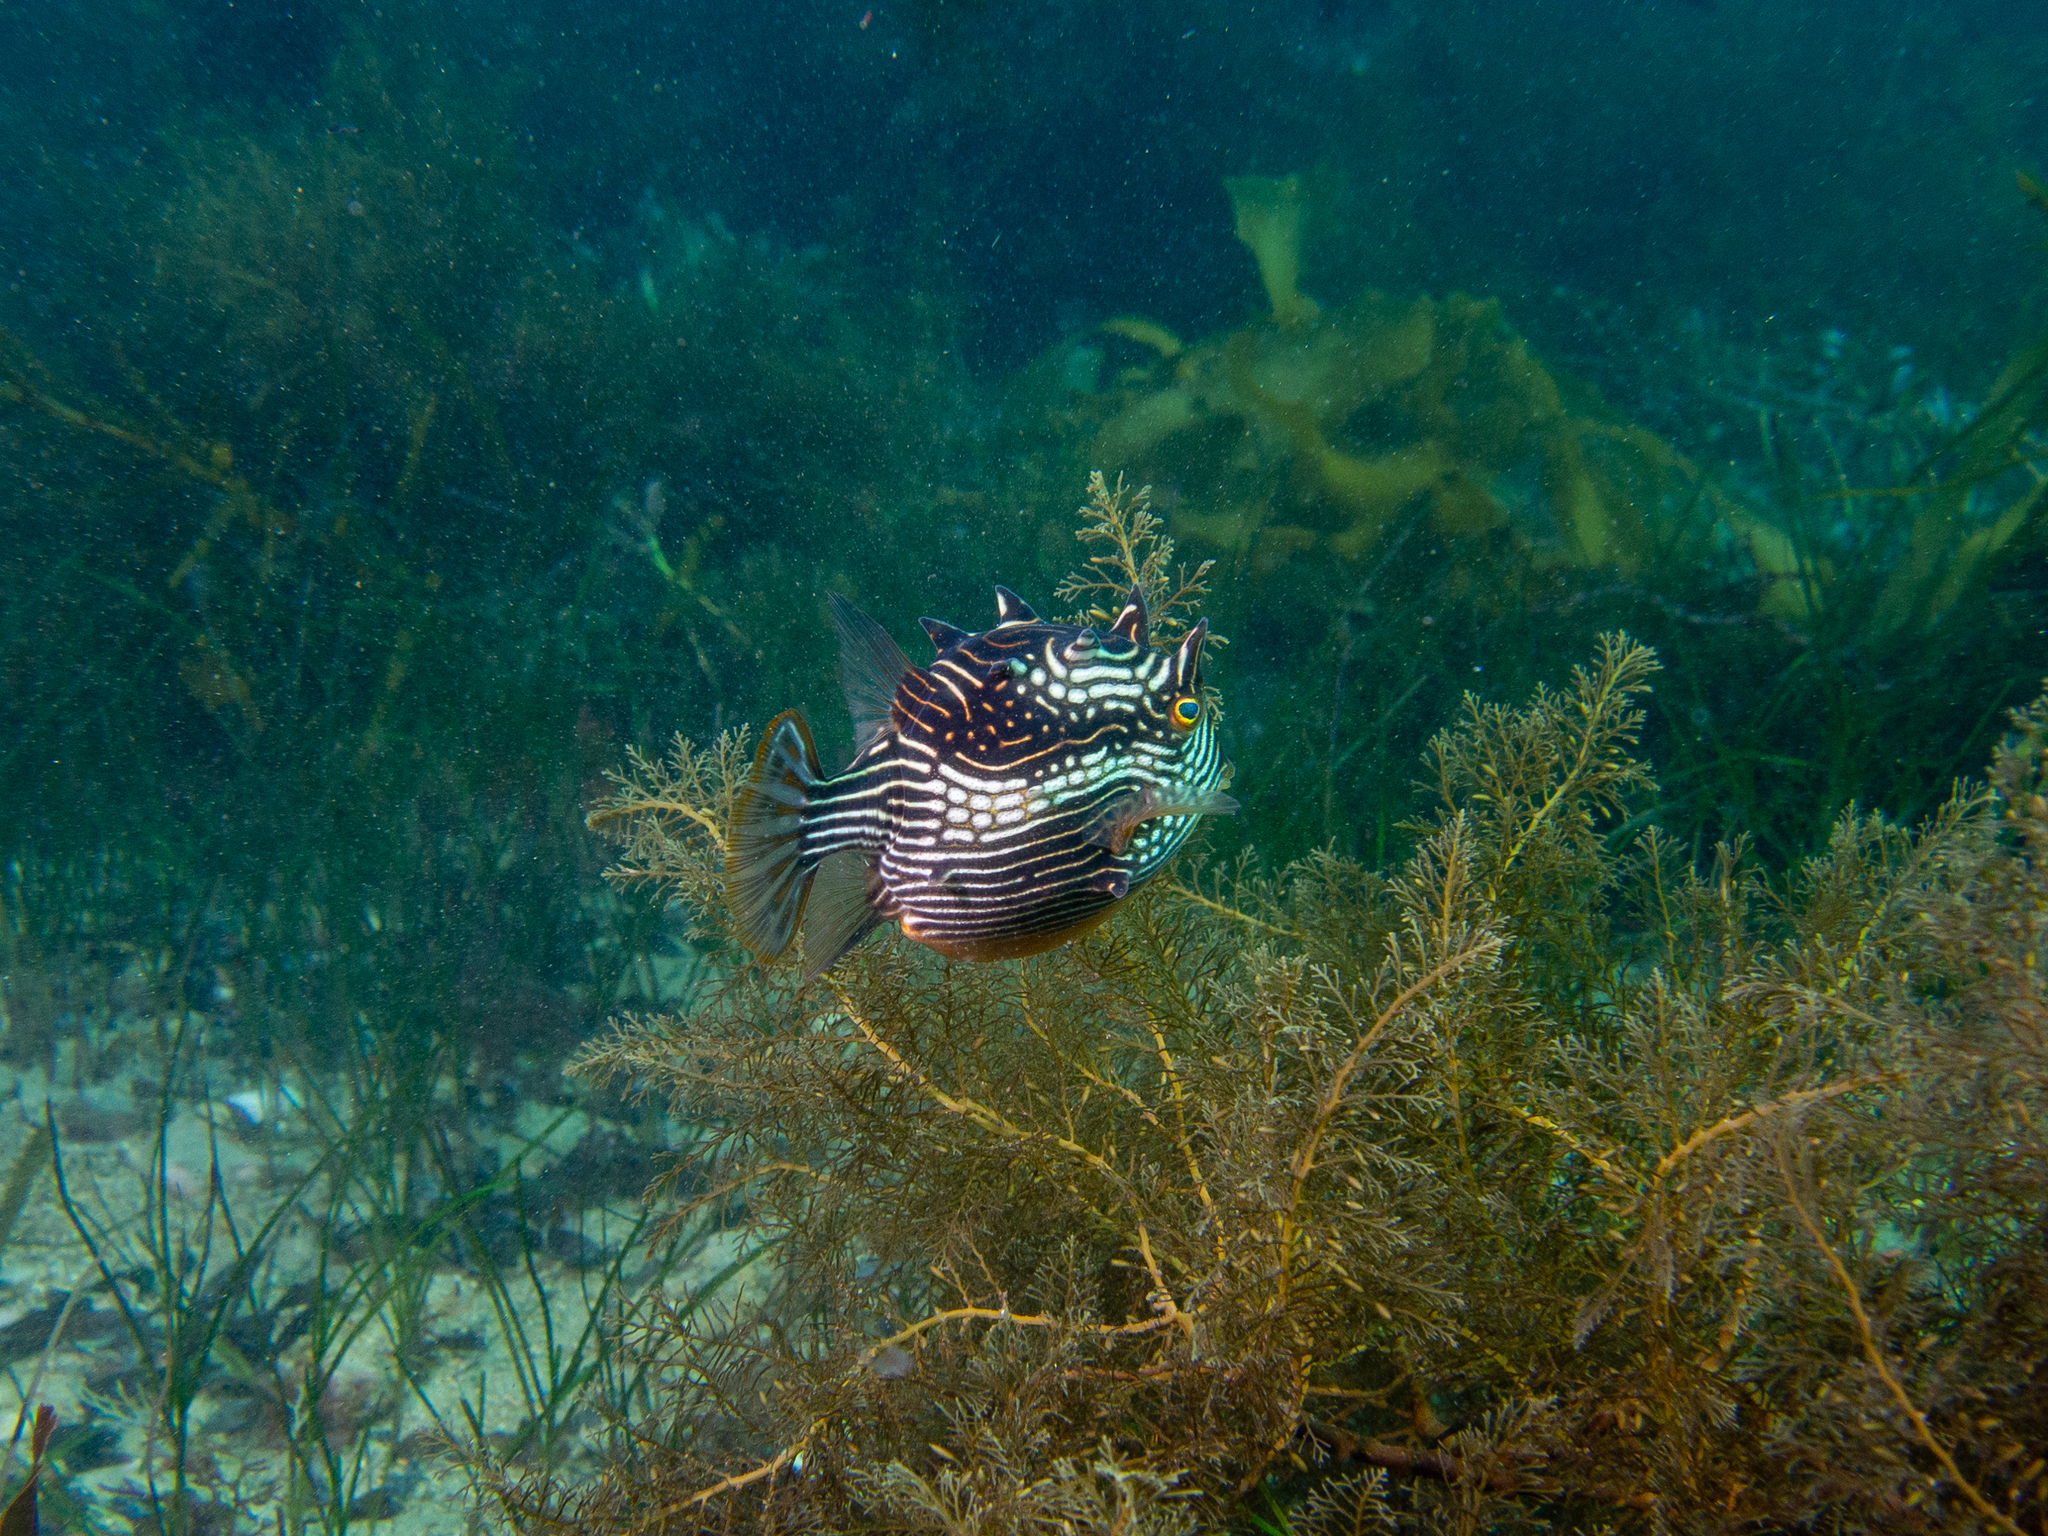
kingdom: Animalia
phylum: Chordata
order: Tetraodontiformes
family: Aracanidae
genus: Aracana
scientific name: Aracana aurita
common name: Shaw’s cowfish
